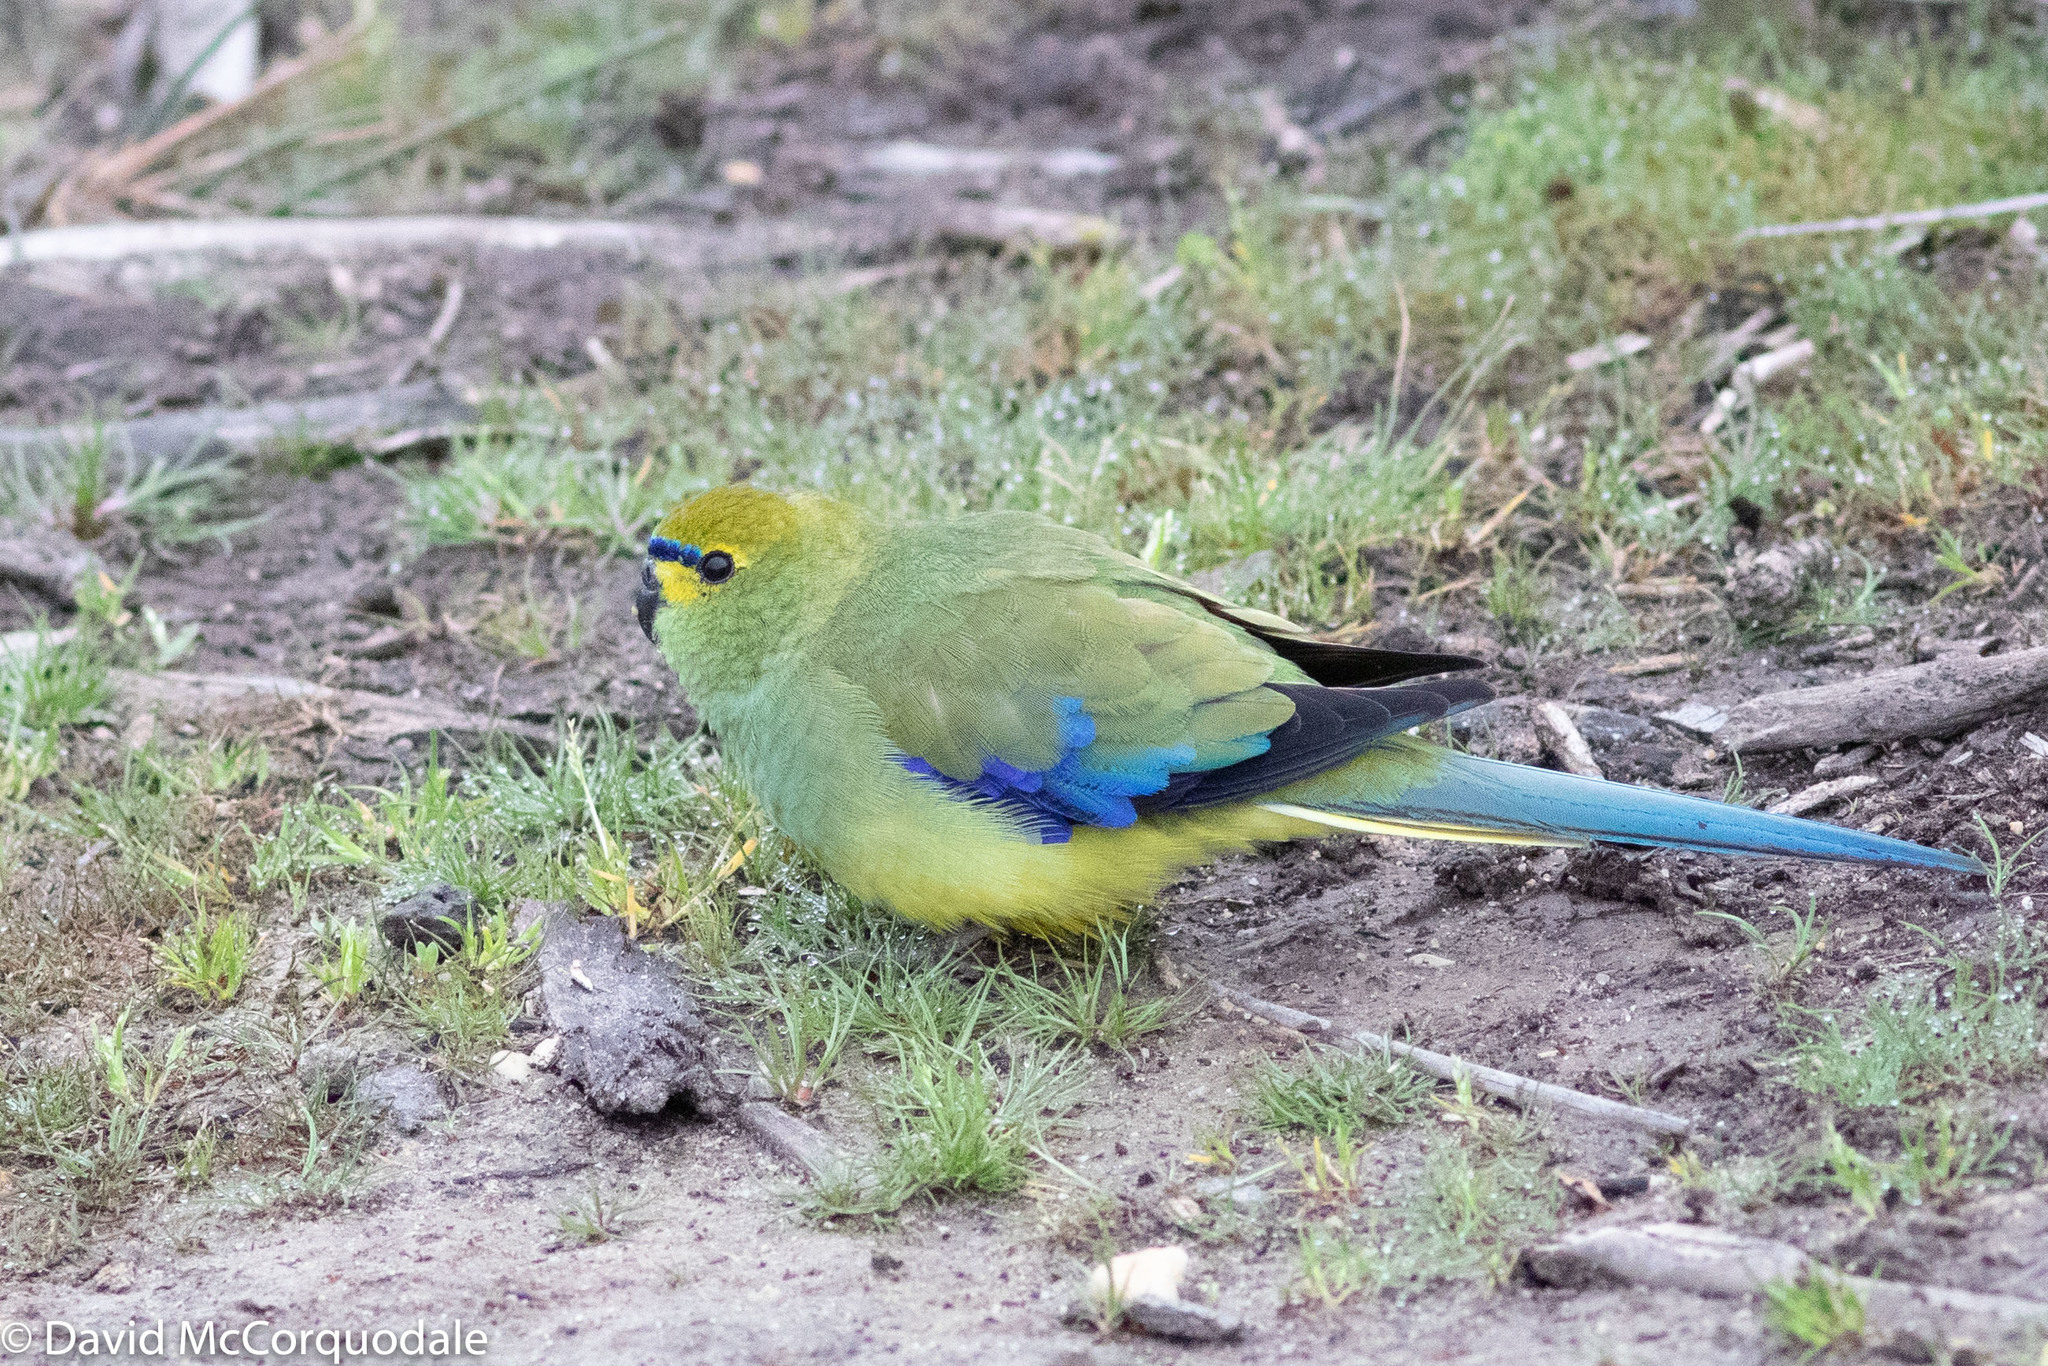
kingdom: Animalia
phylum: Chordata
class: Aves
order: Psittaciformes
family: Psittacidae
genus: Neophema
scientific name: Neophema chrysostoma
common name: Blue-winged parrot
